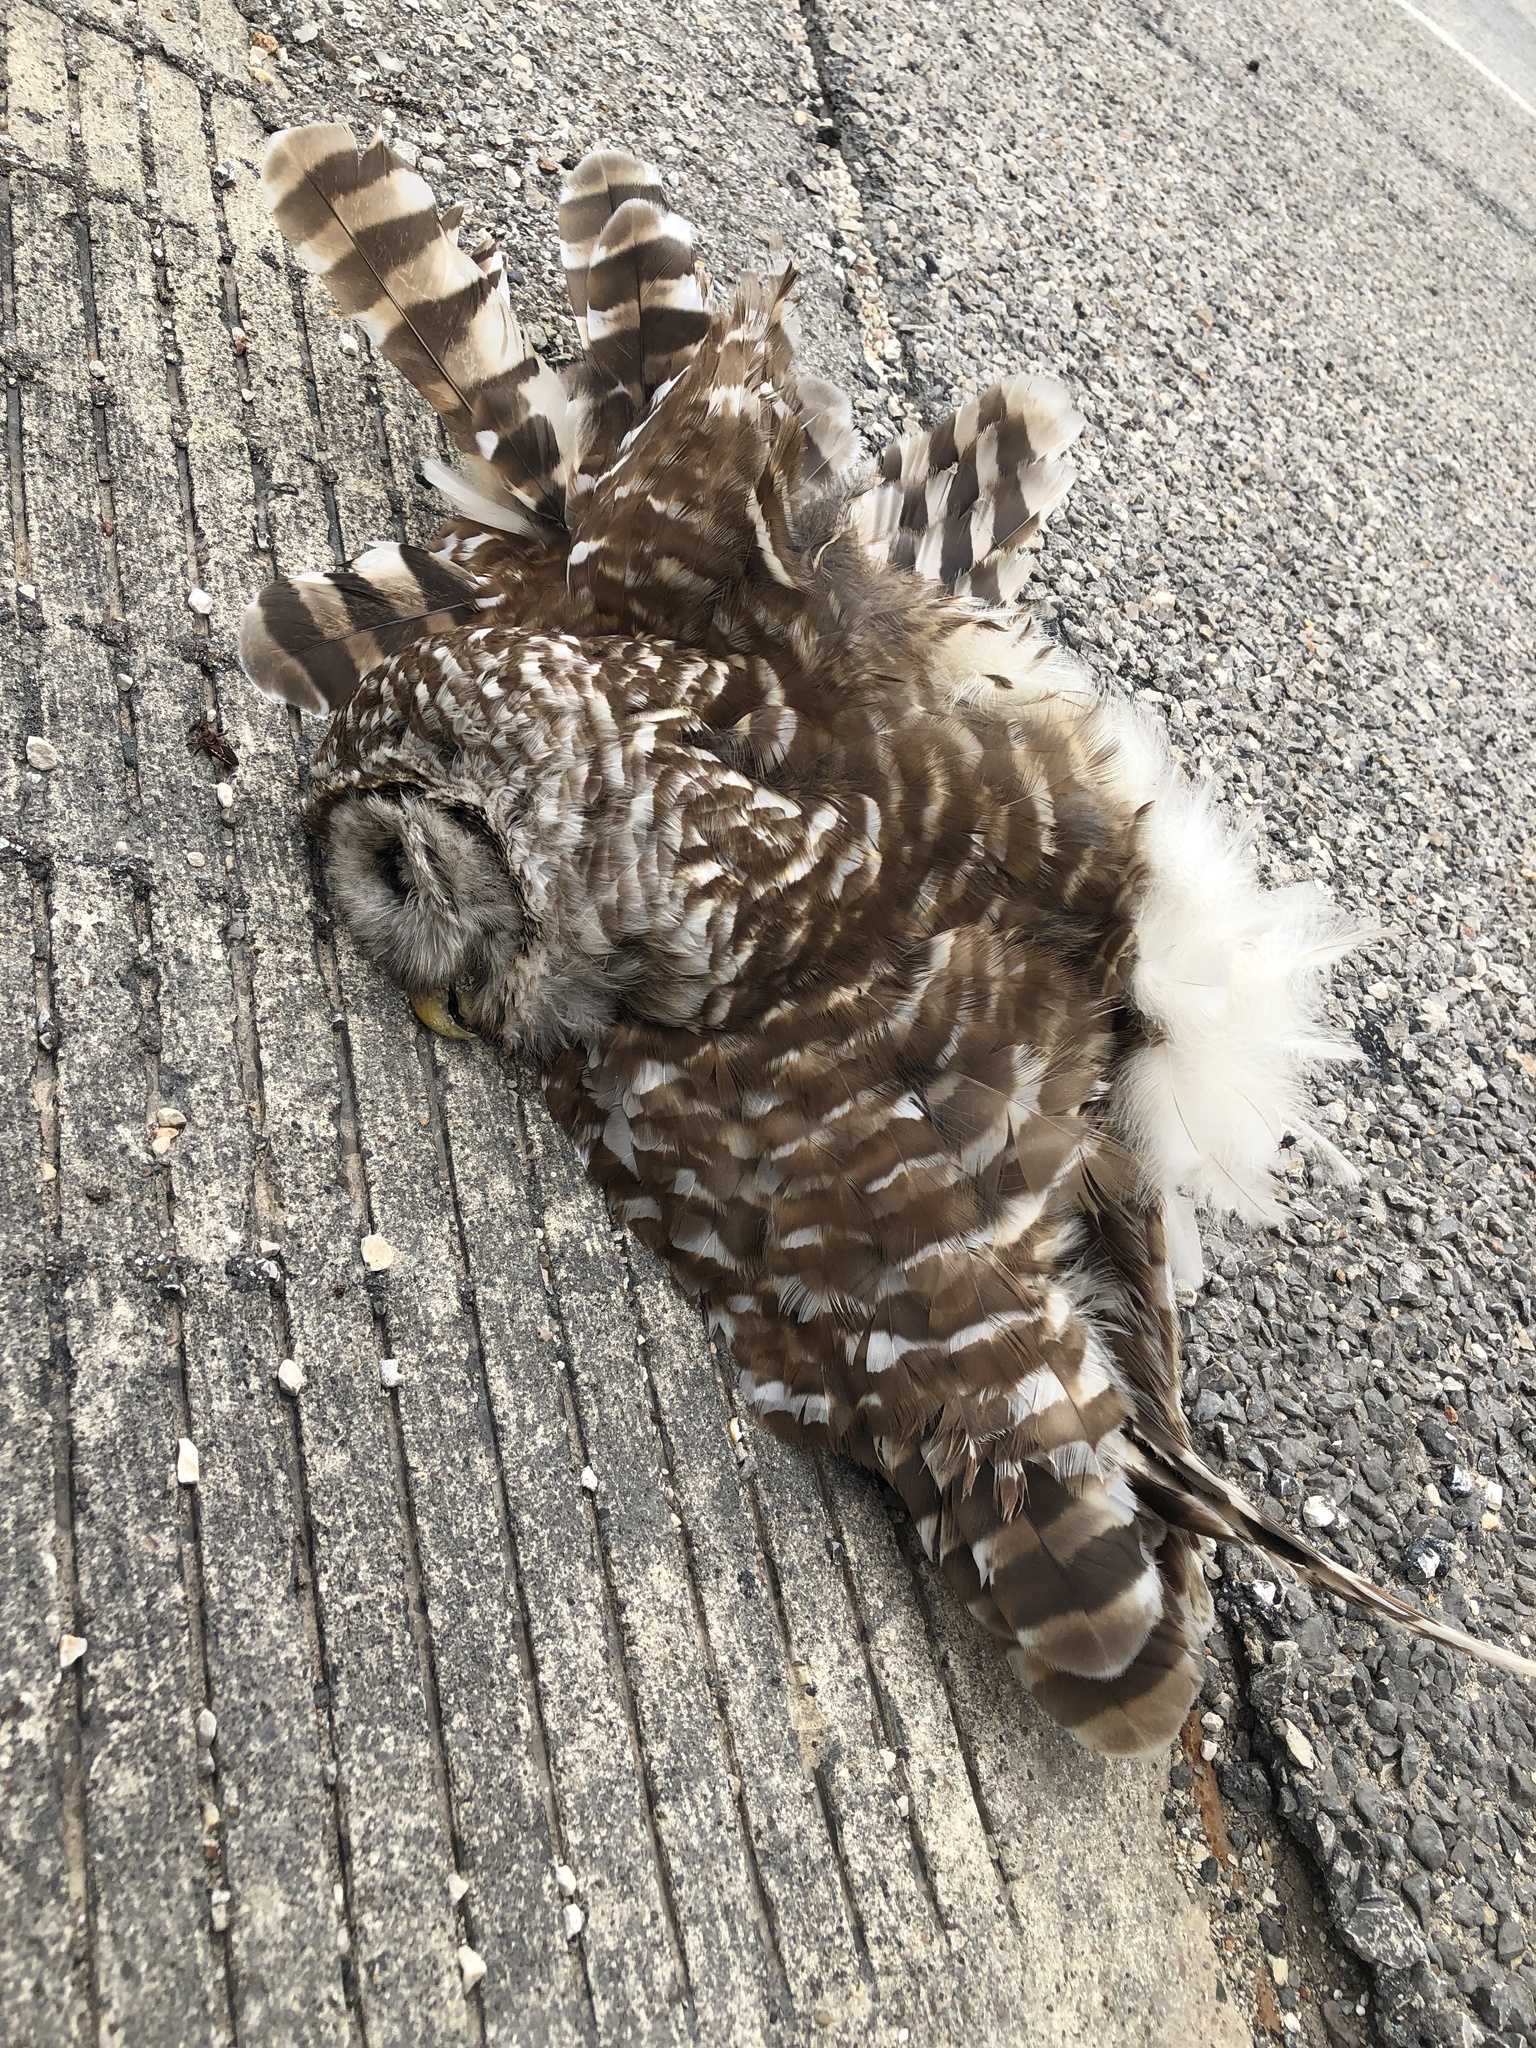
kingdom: Animalia
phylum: Chordata
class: Aves
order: Strigiformes
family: Strigidae
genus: Strix
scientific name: Strix varia
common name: Barred owl
